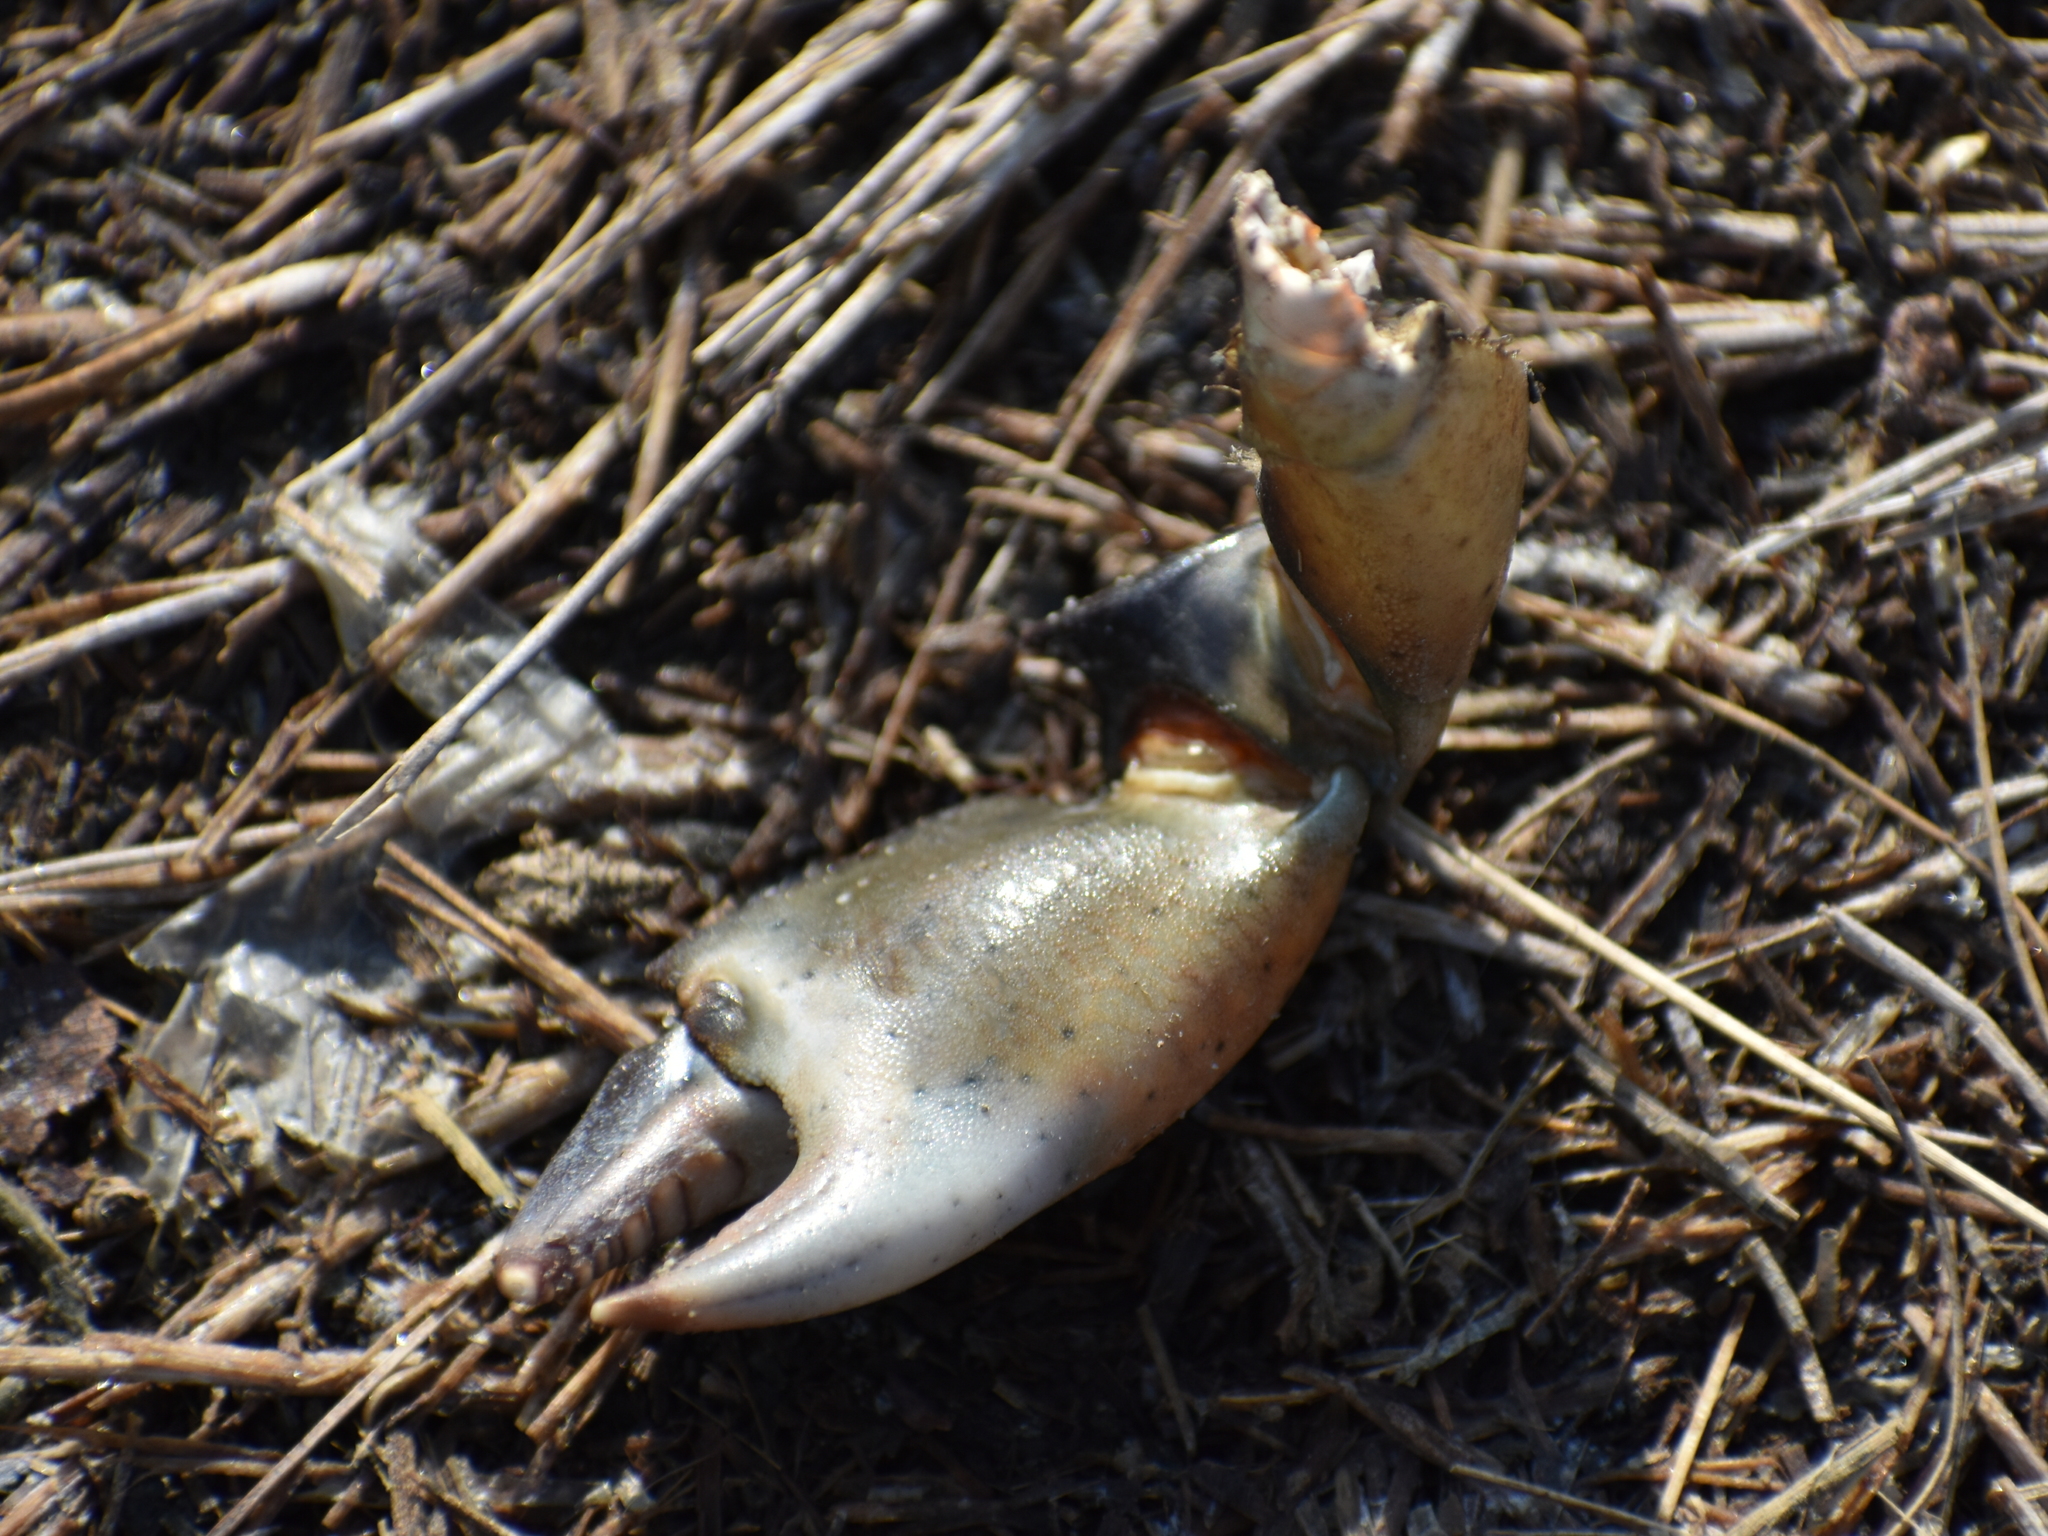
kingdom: Animalia
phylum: Arthropoda
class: Malacostraca
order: Decapoda
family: Carcinidae
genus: Carcinus
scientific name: Carcinus maenas
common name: European green crab
